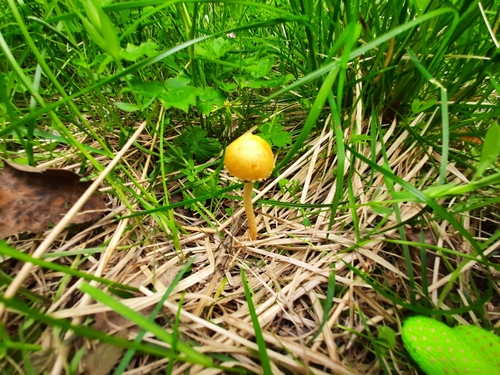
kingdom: Fungi
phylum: Basidiomycota
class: Agaricomycetes
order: Agaricales
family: Strophariaceae
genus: Leratiomyces
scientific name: Leratiomyces magnivelaris
